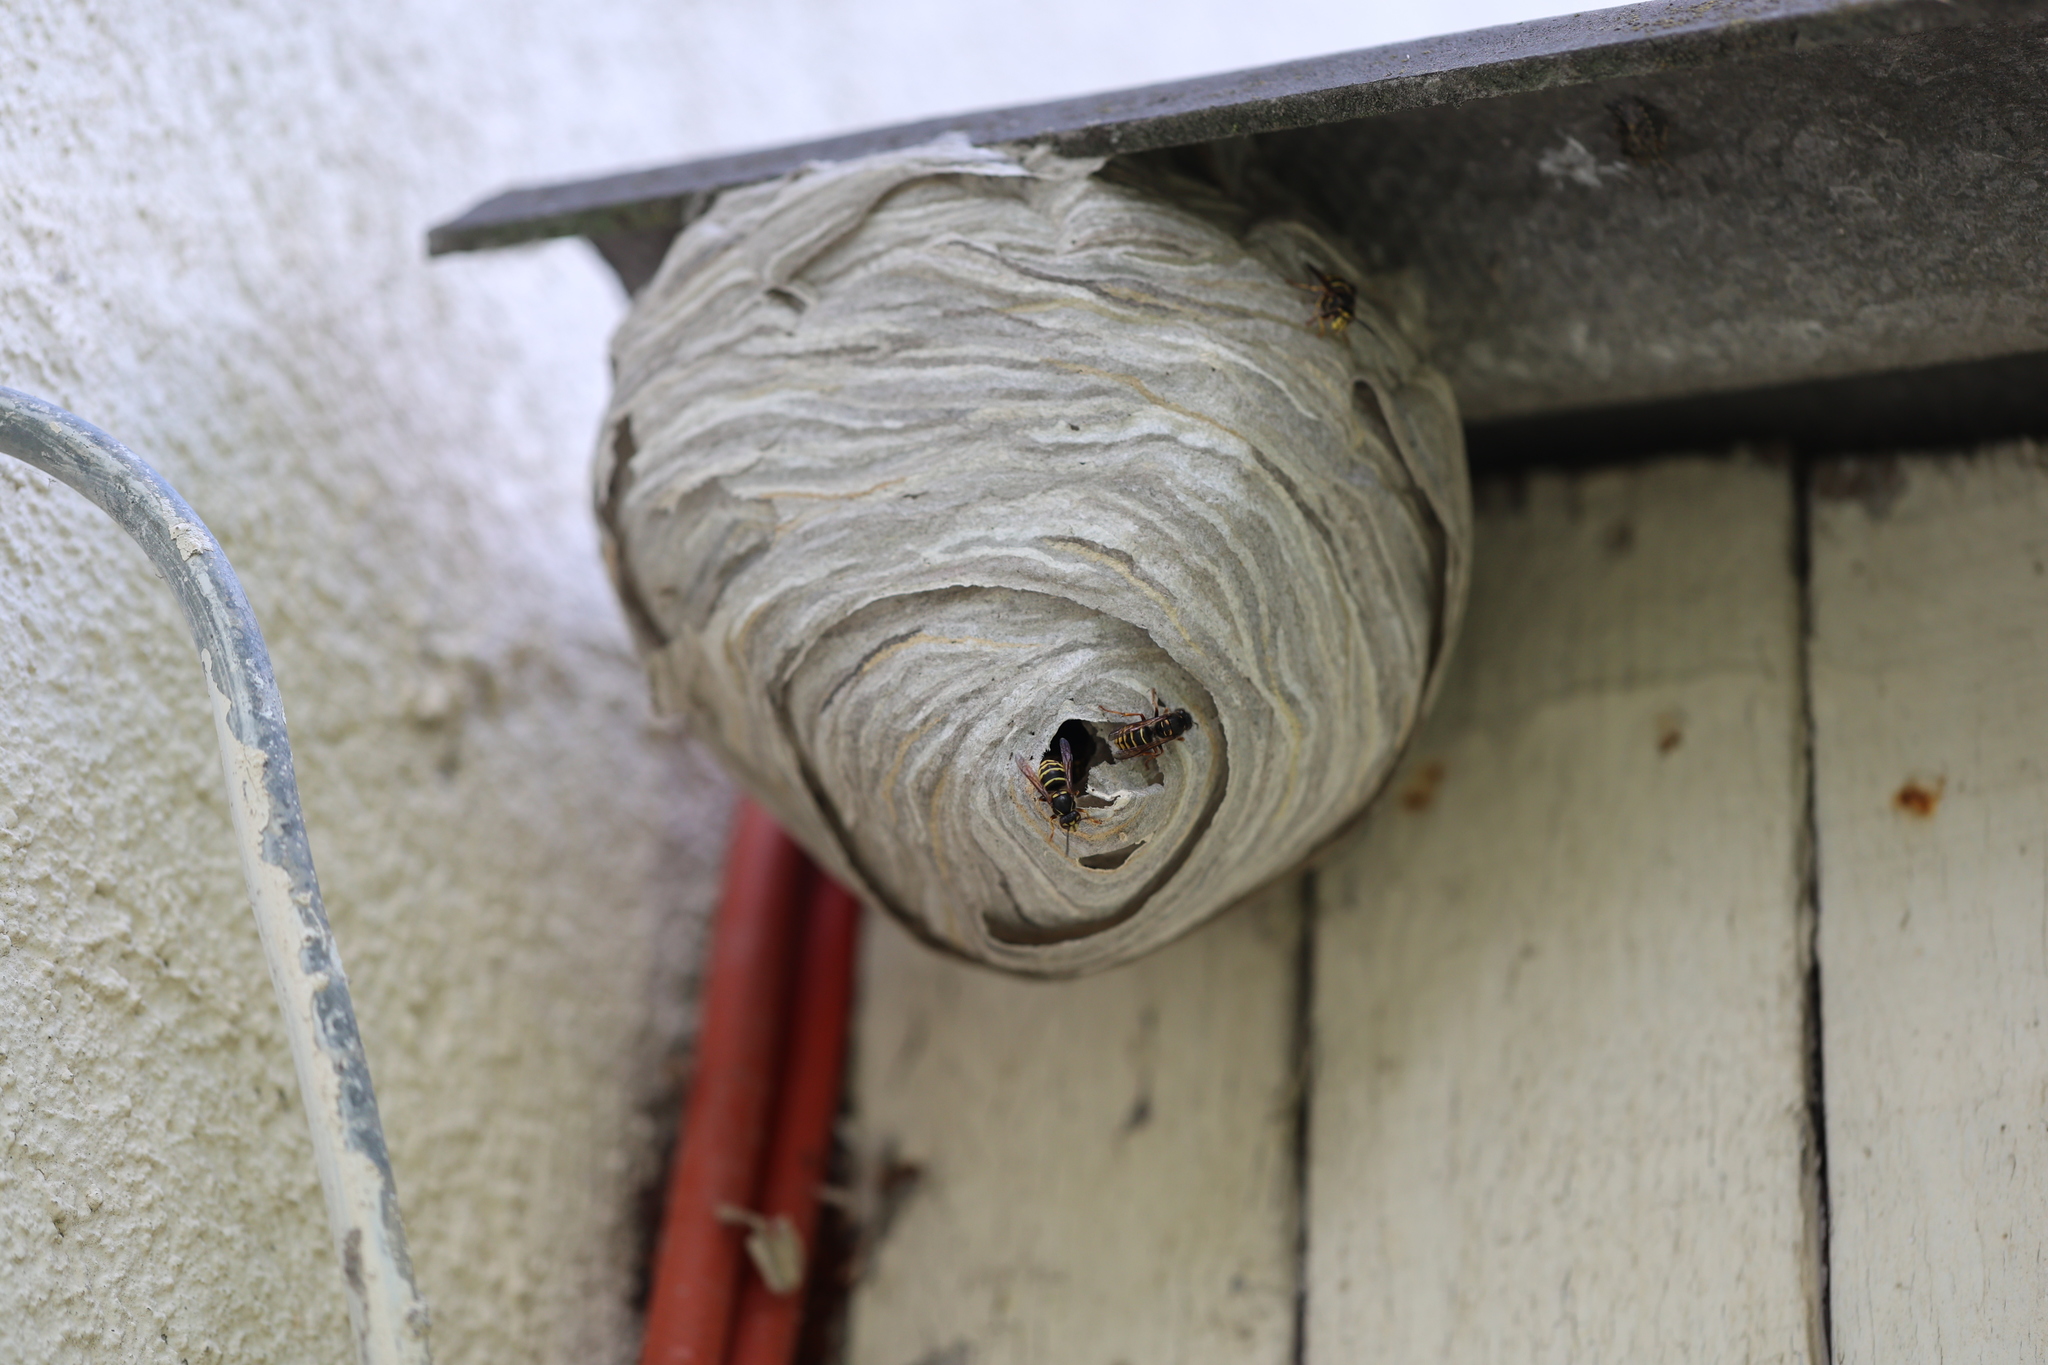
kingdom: Animalia
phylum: Arthropoda
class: Insecta
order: Hymenoptera
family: Vespidae
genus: Dolichovespula
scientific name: Dolichovespula media
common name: Median wasp
